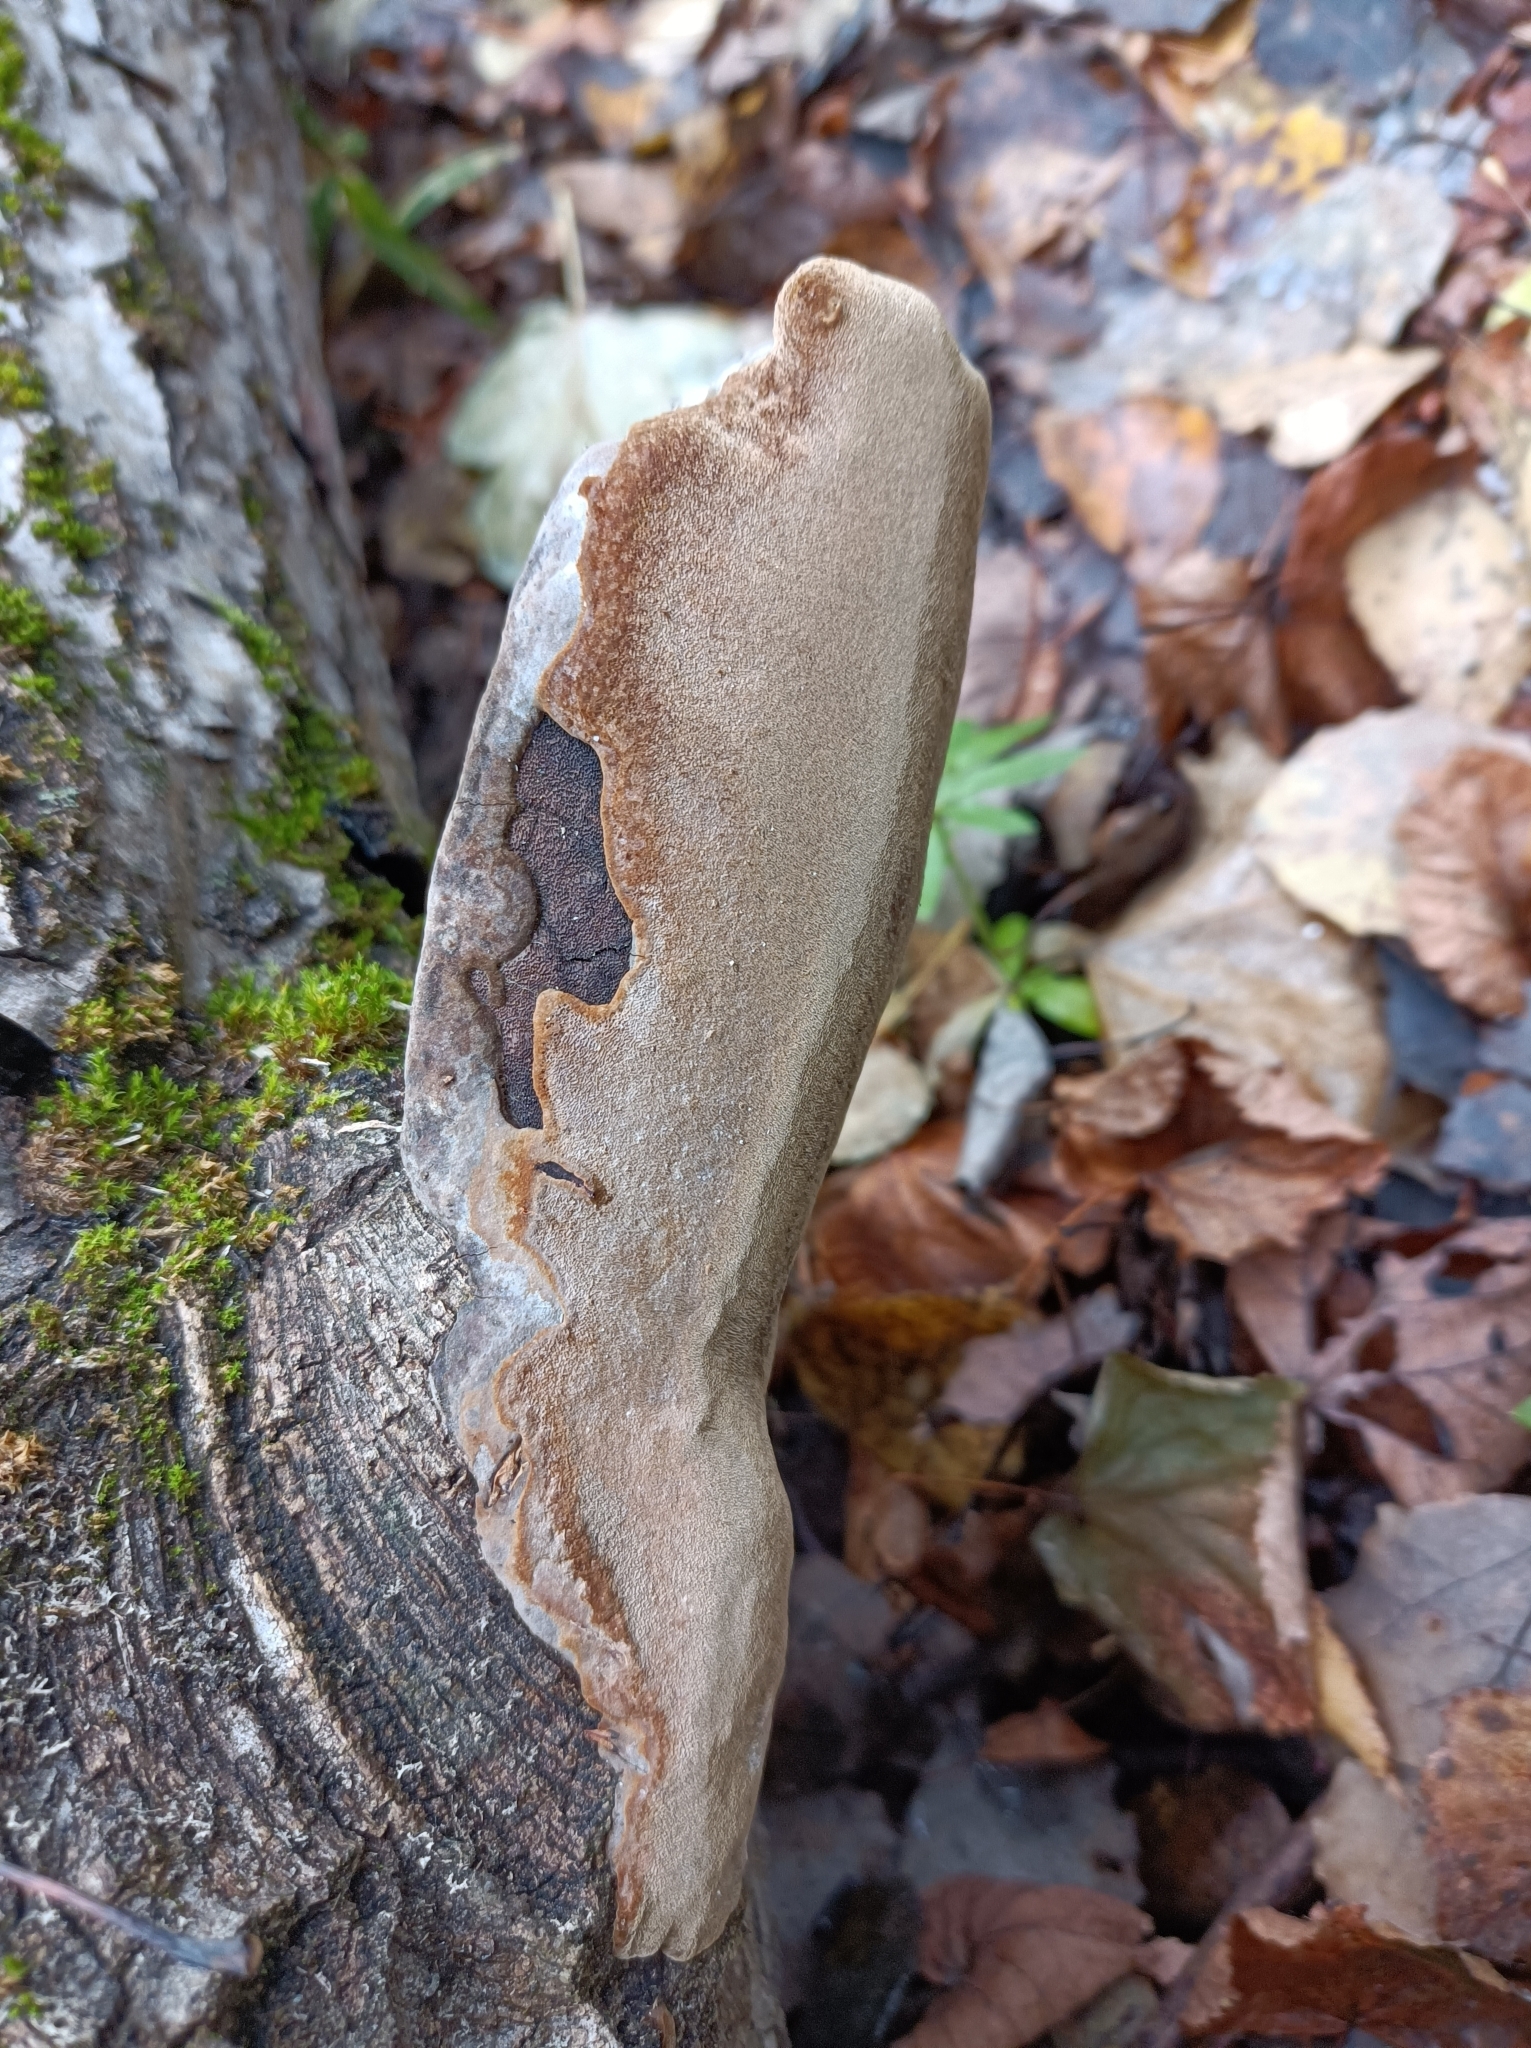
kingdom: Fungi
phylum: Basidiomycota
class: Agaricomycetes
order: Hymenochaetales
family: Hymenochaetaceae
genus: Fomitiporia
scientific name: Fomitiporia punctata
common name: Elbowpatch crust
